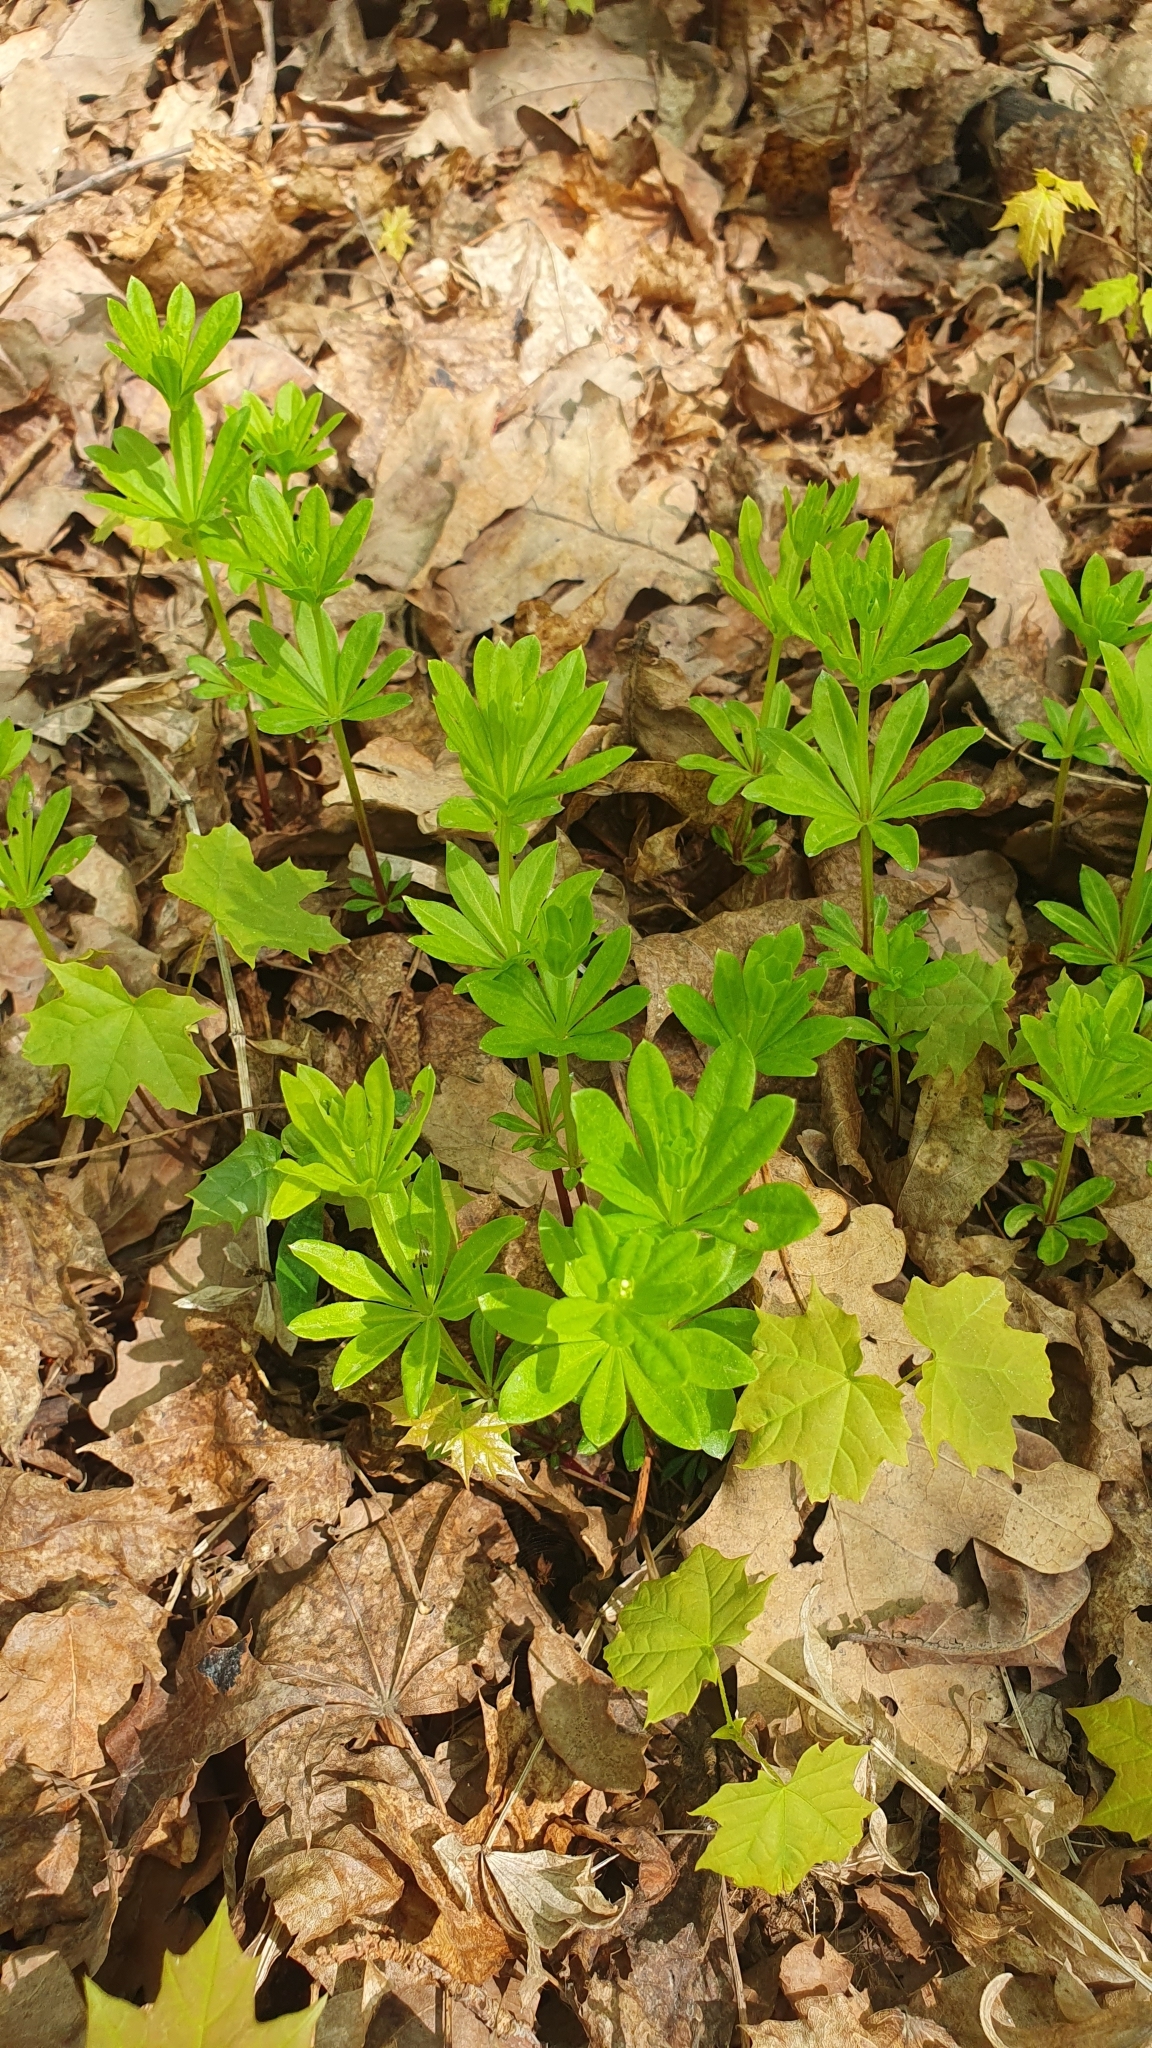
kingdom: Plantae
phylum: Tracheophyta
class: Magnoliopsida
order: Gentianales
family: Rubiaceae
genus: Galium
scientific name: Galium odoratum
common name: Sweet woodruff
